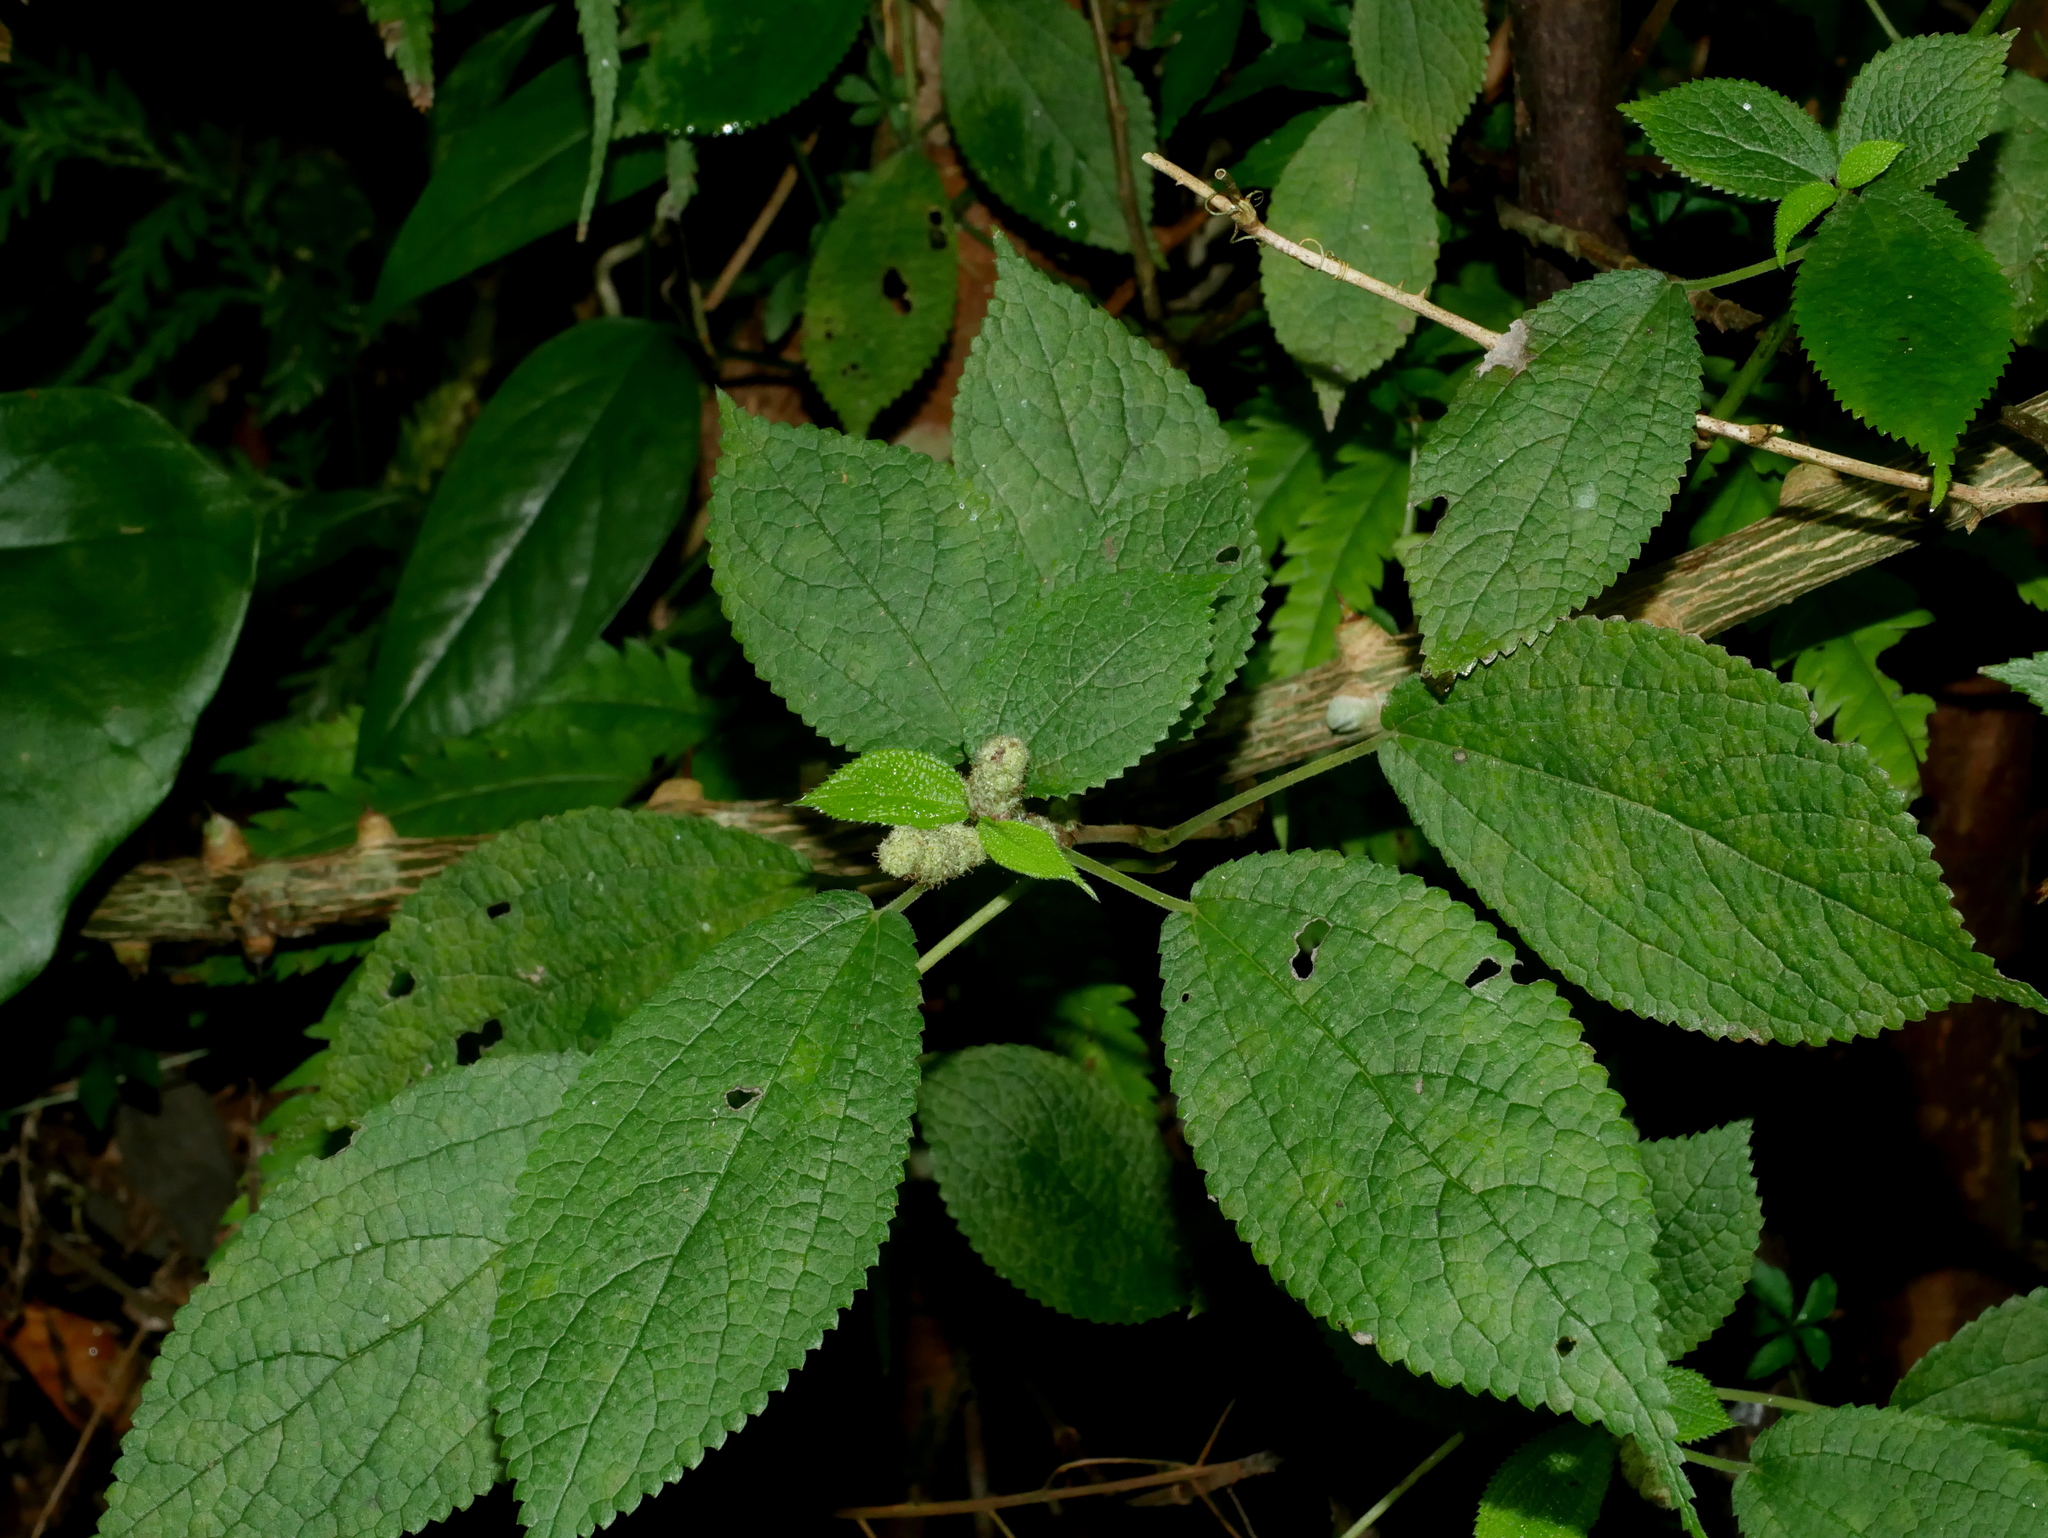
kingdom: Plantae
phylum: Tracheophyta
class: Magnoliopsida
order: Rosales
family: Urticaceae
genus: Boehmeria
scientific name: Boehmeria pilosiuscula
